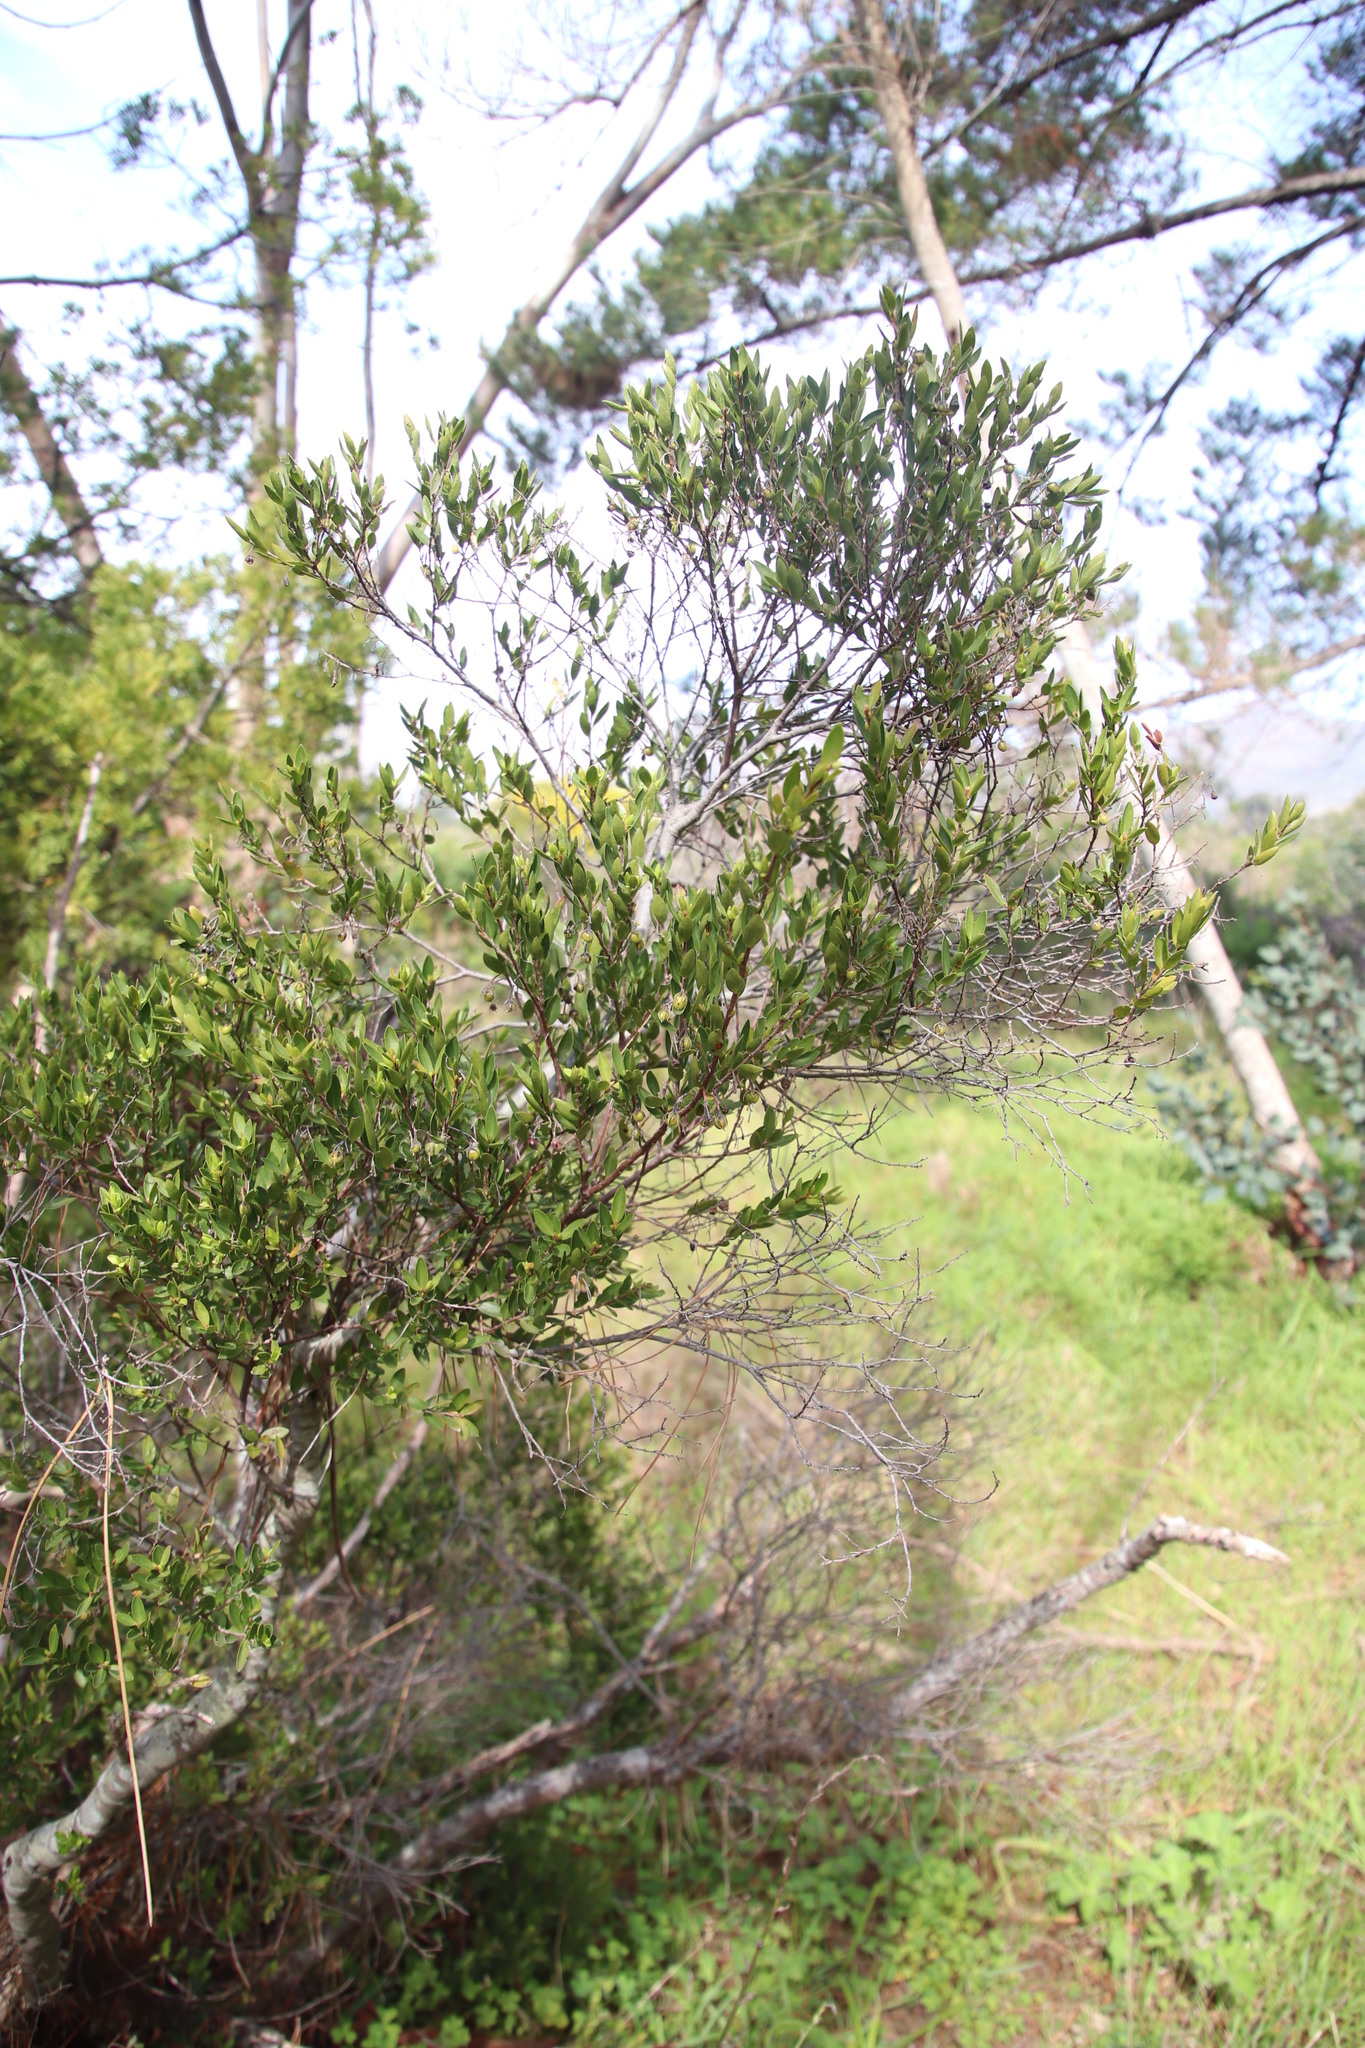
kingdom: Plantae
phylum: Tracheophyta
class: Magnoliopsida
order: Ericales
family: Ebenaceae
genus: Diospyros
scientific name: Diospyros glabra
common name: Fynbos star apple
